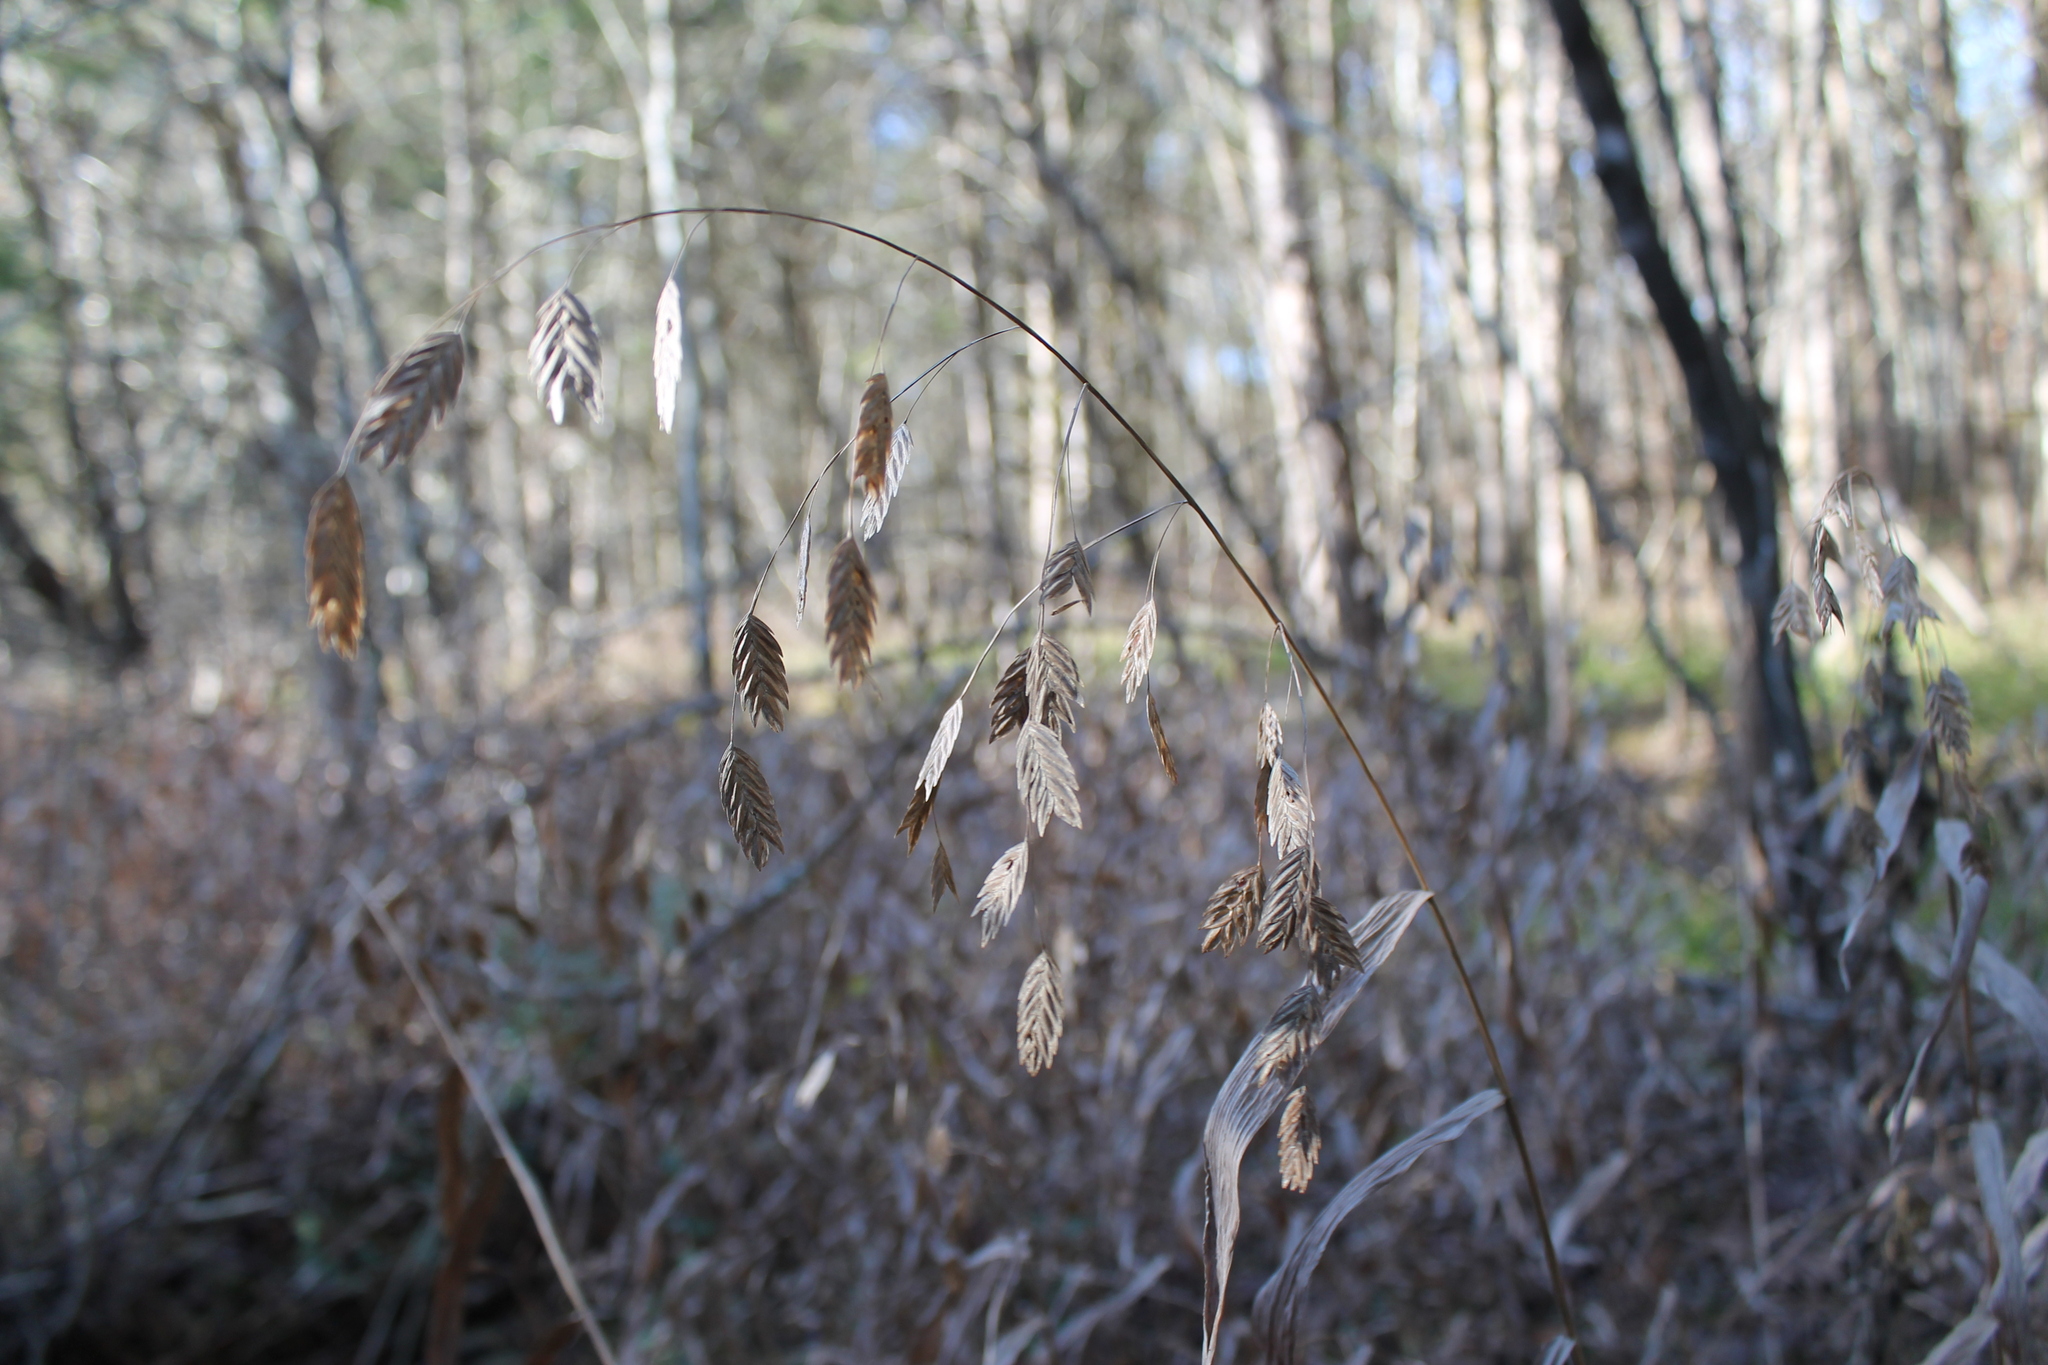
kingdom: Plantae
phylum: Tracheophyta
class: Liliopsida
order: Poales
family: Poaceae
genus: Chasmanthium
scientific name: Chasmanthium latifolium
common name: Broad-leaved chasmanthium
